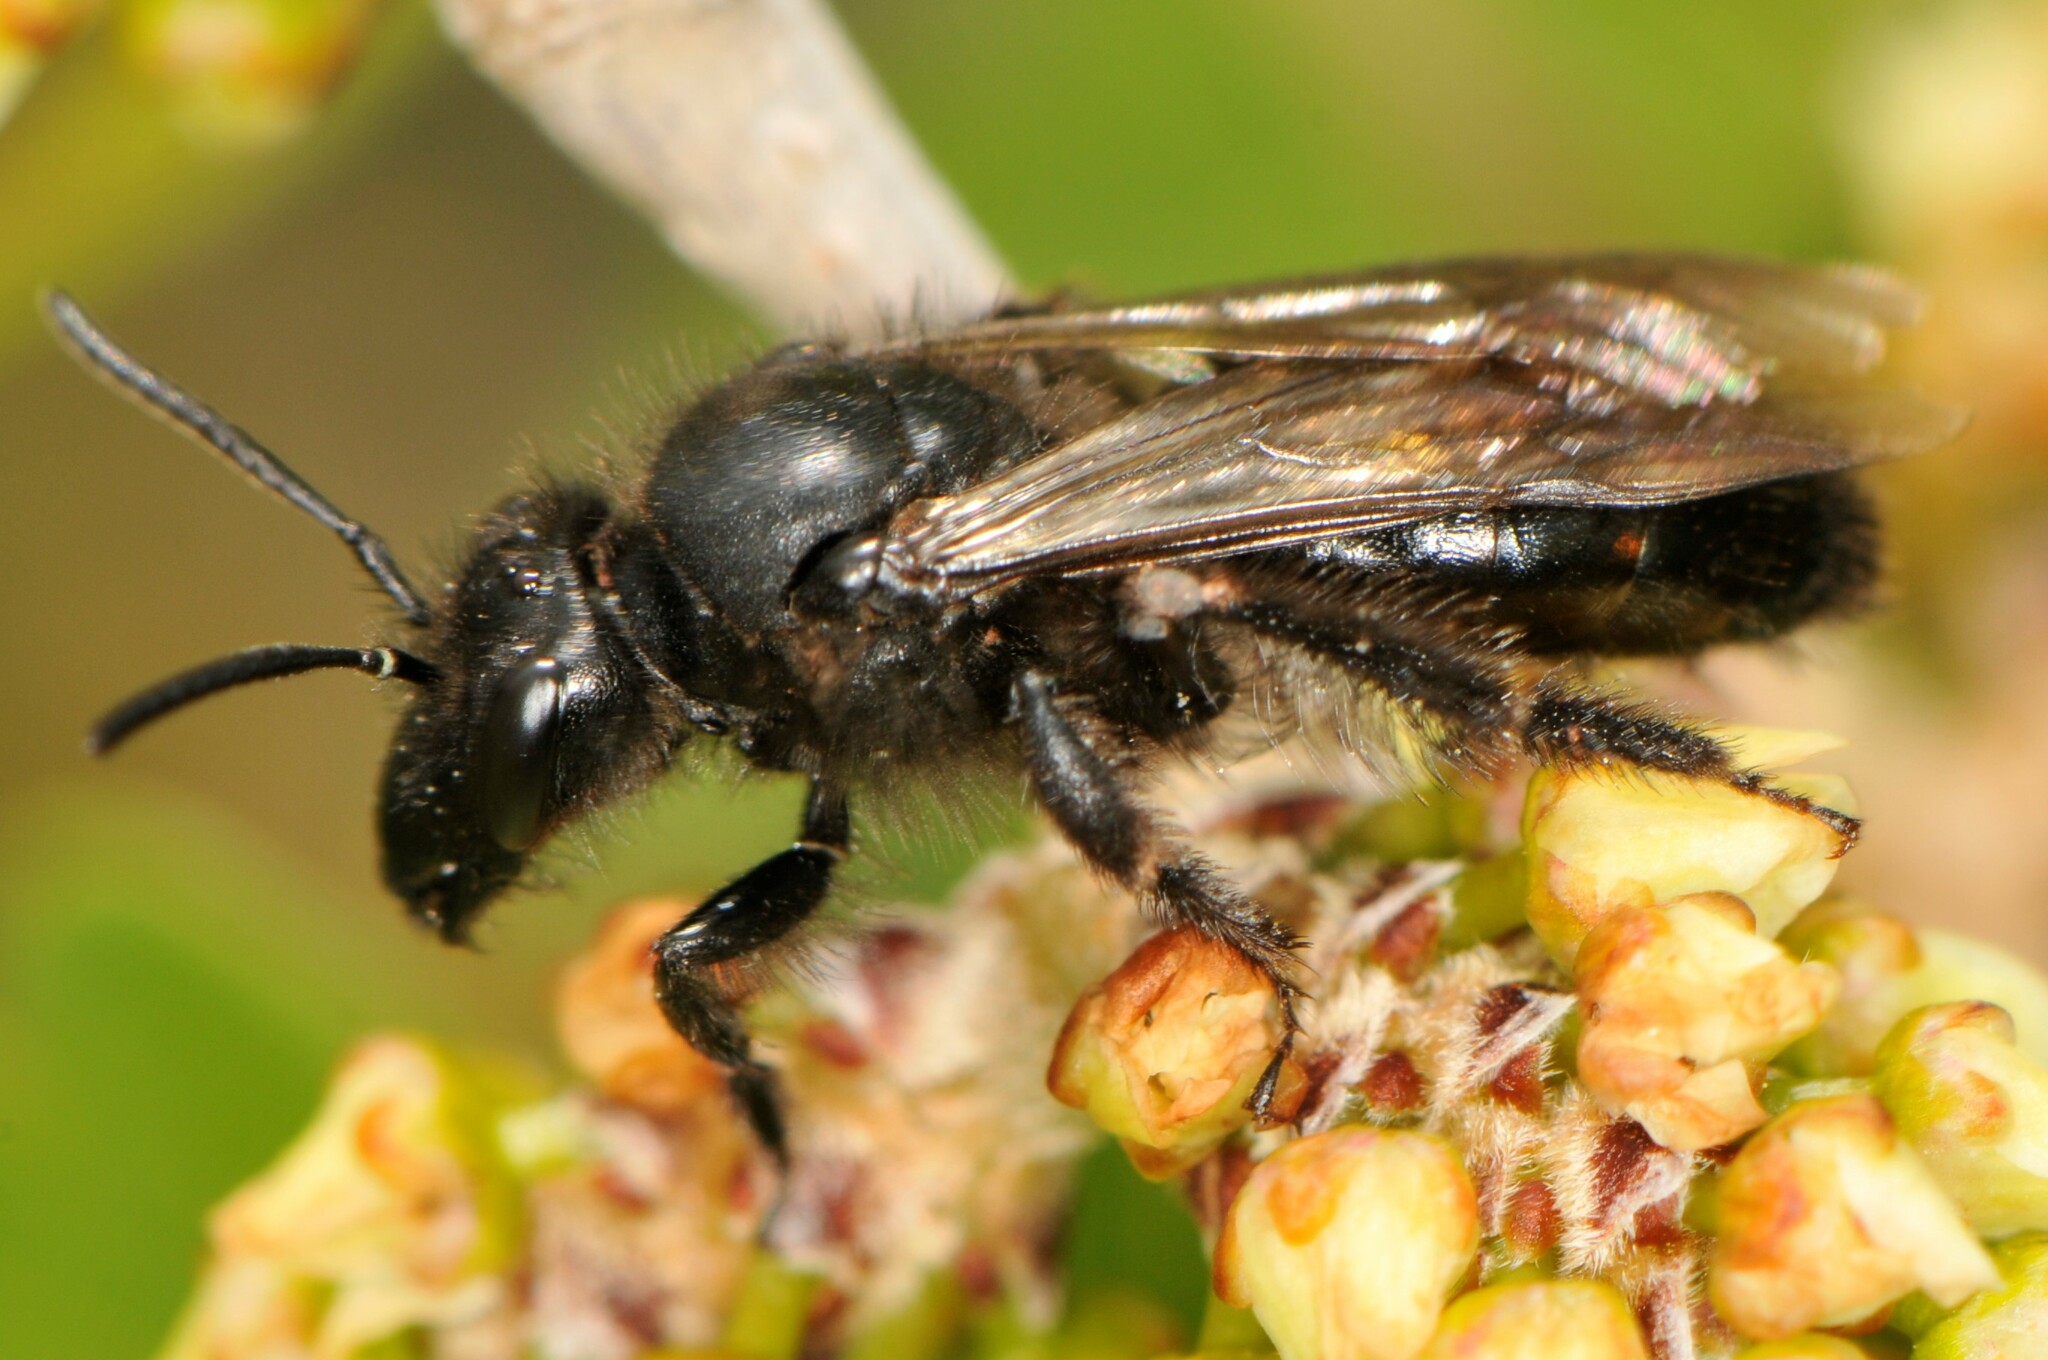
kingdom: Animalia
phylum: Arthropoda
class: Insecta
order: Hymenoptera
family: Andrenidae
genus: Andrena
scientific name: Andrena porterae
